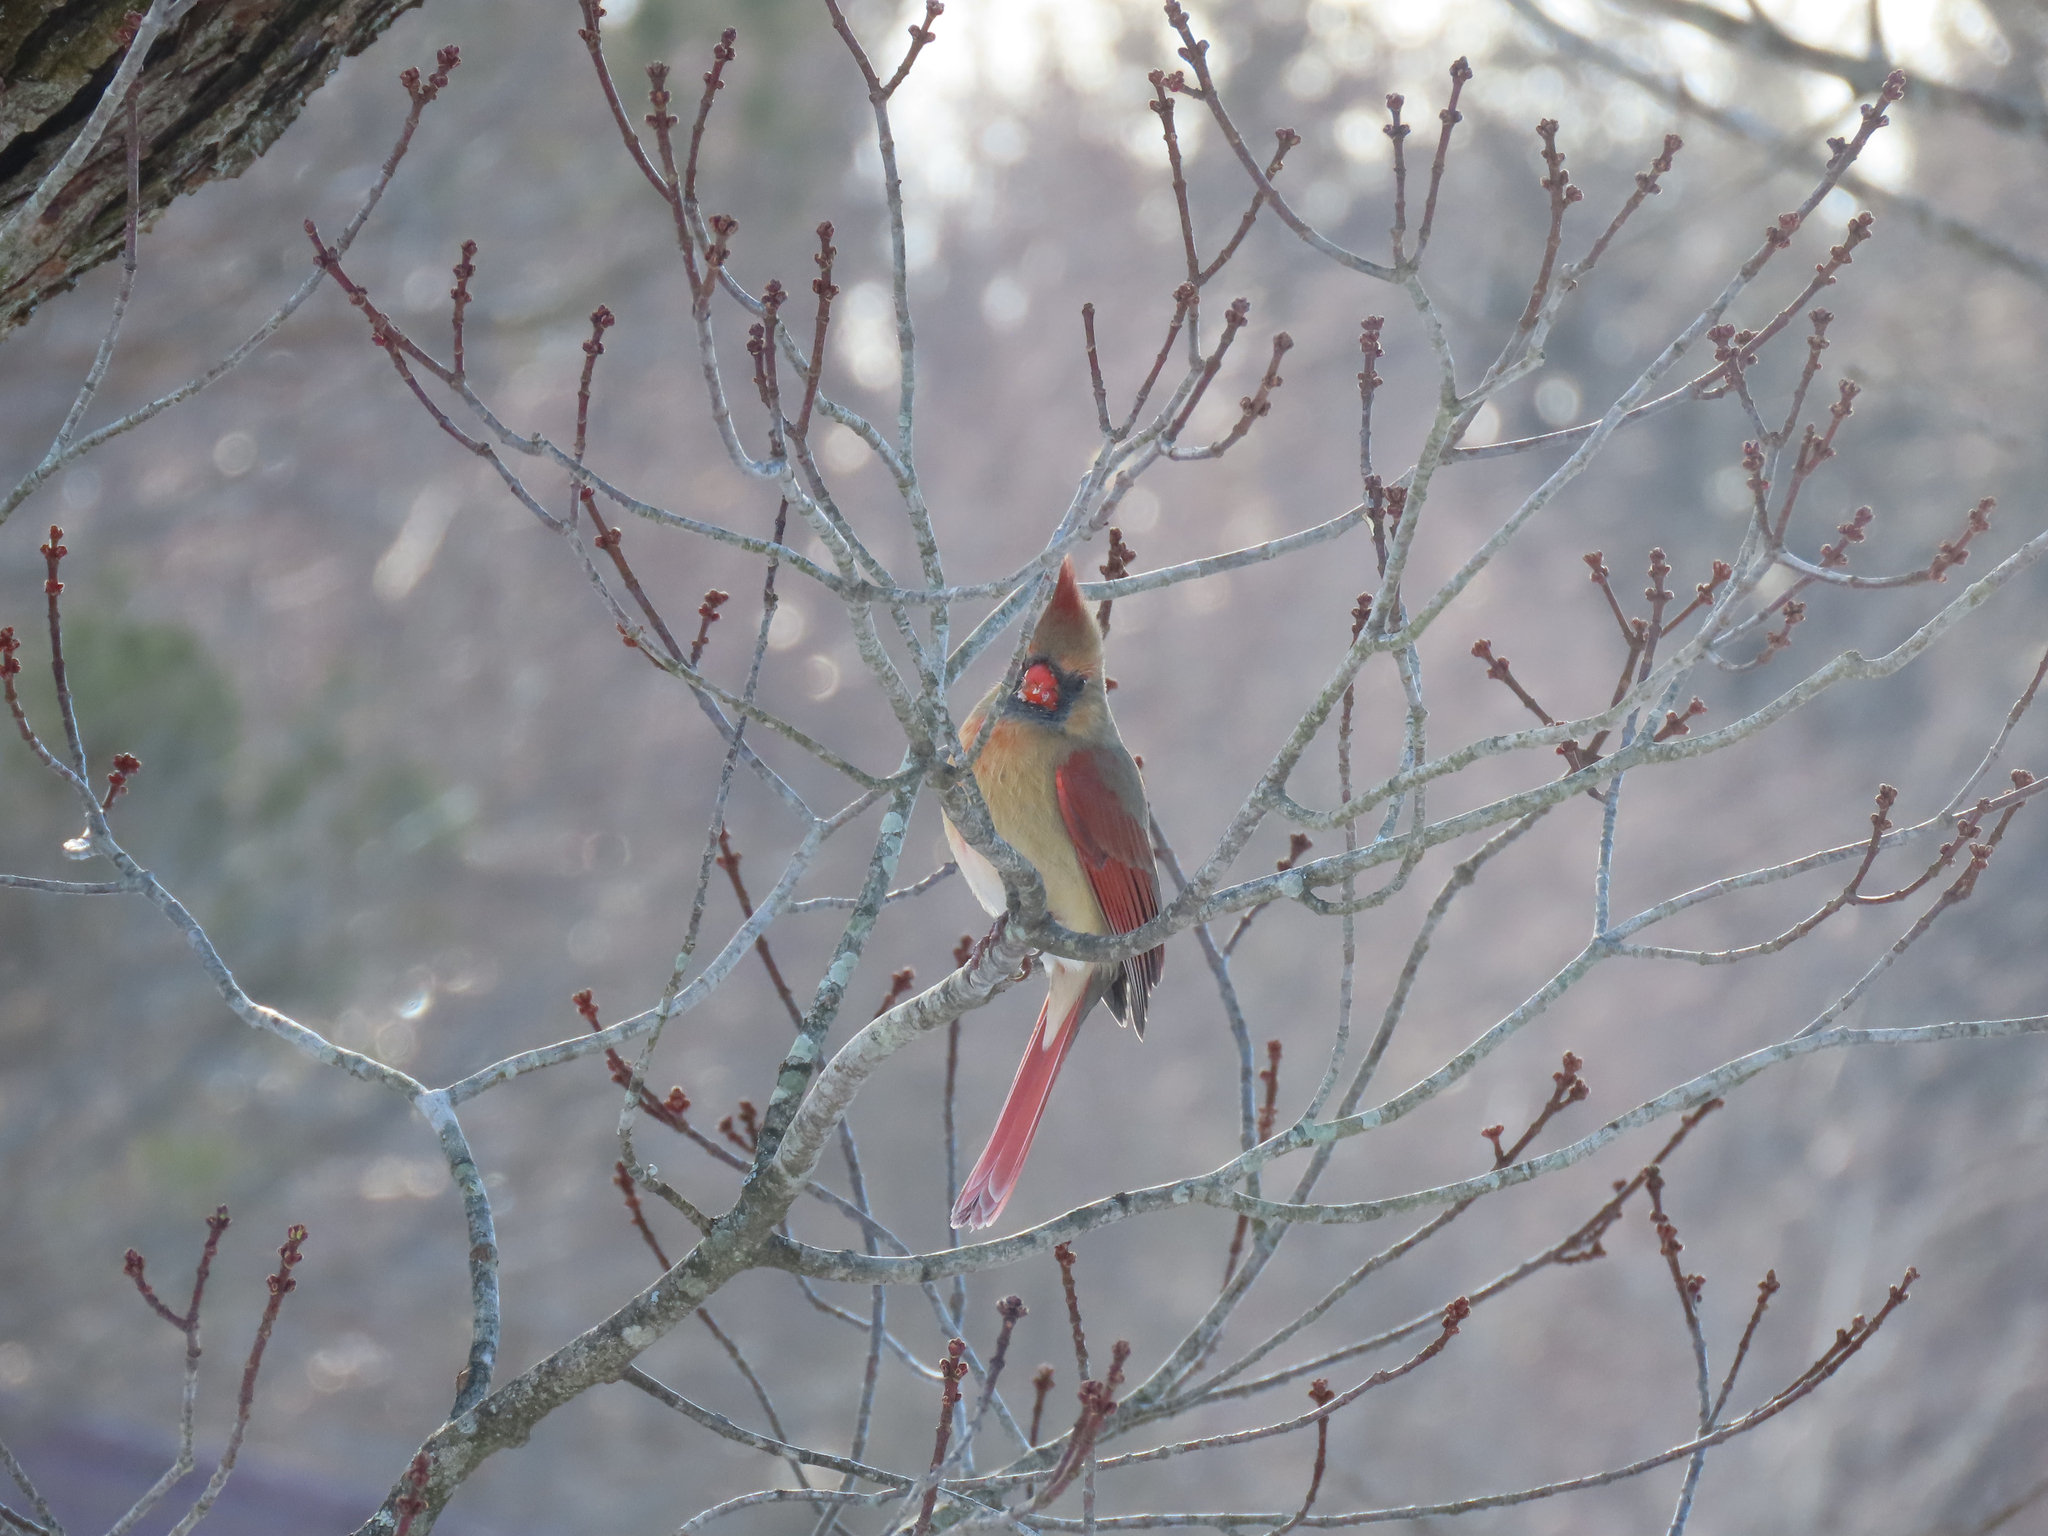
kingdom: Animalia
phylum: Chordata
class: Aves
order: Passeriformes
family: Cardinalidae
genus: Cardinalis
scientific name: Cardinalis cardinalis
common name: Northern cardinal
